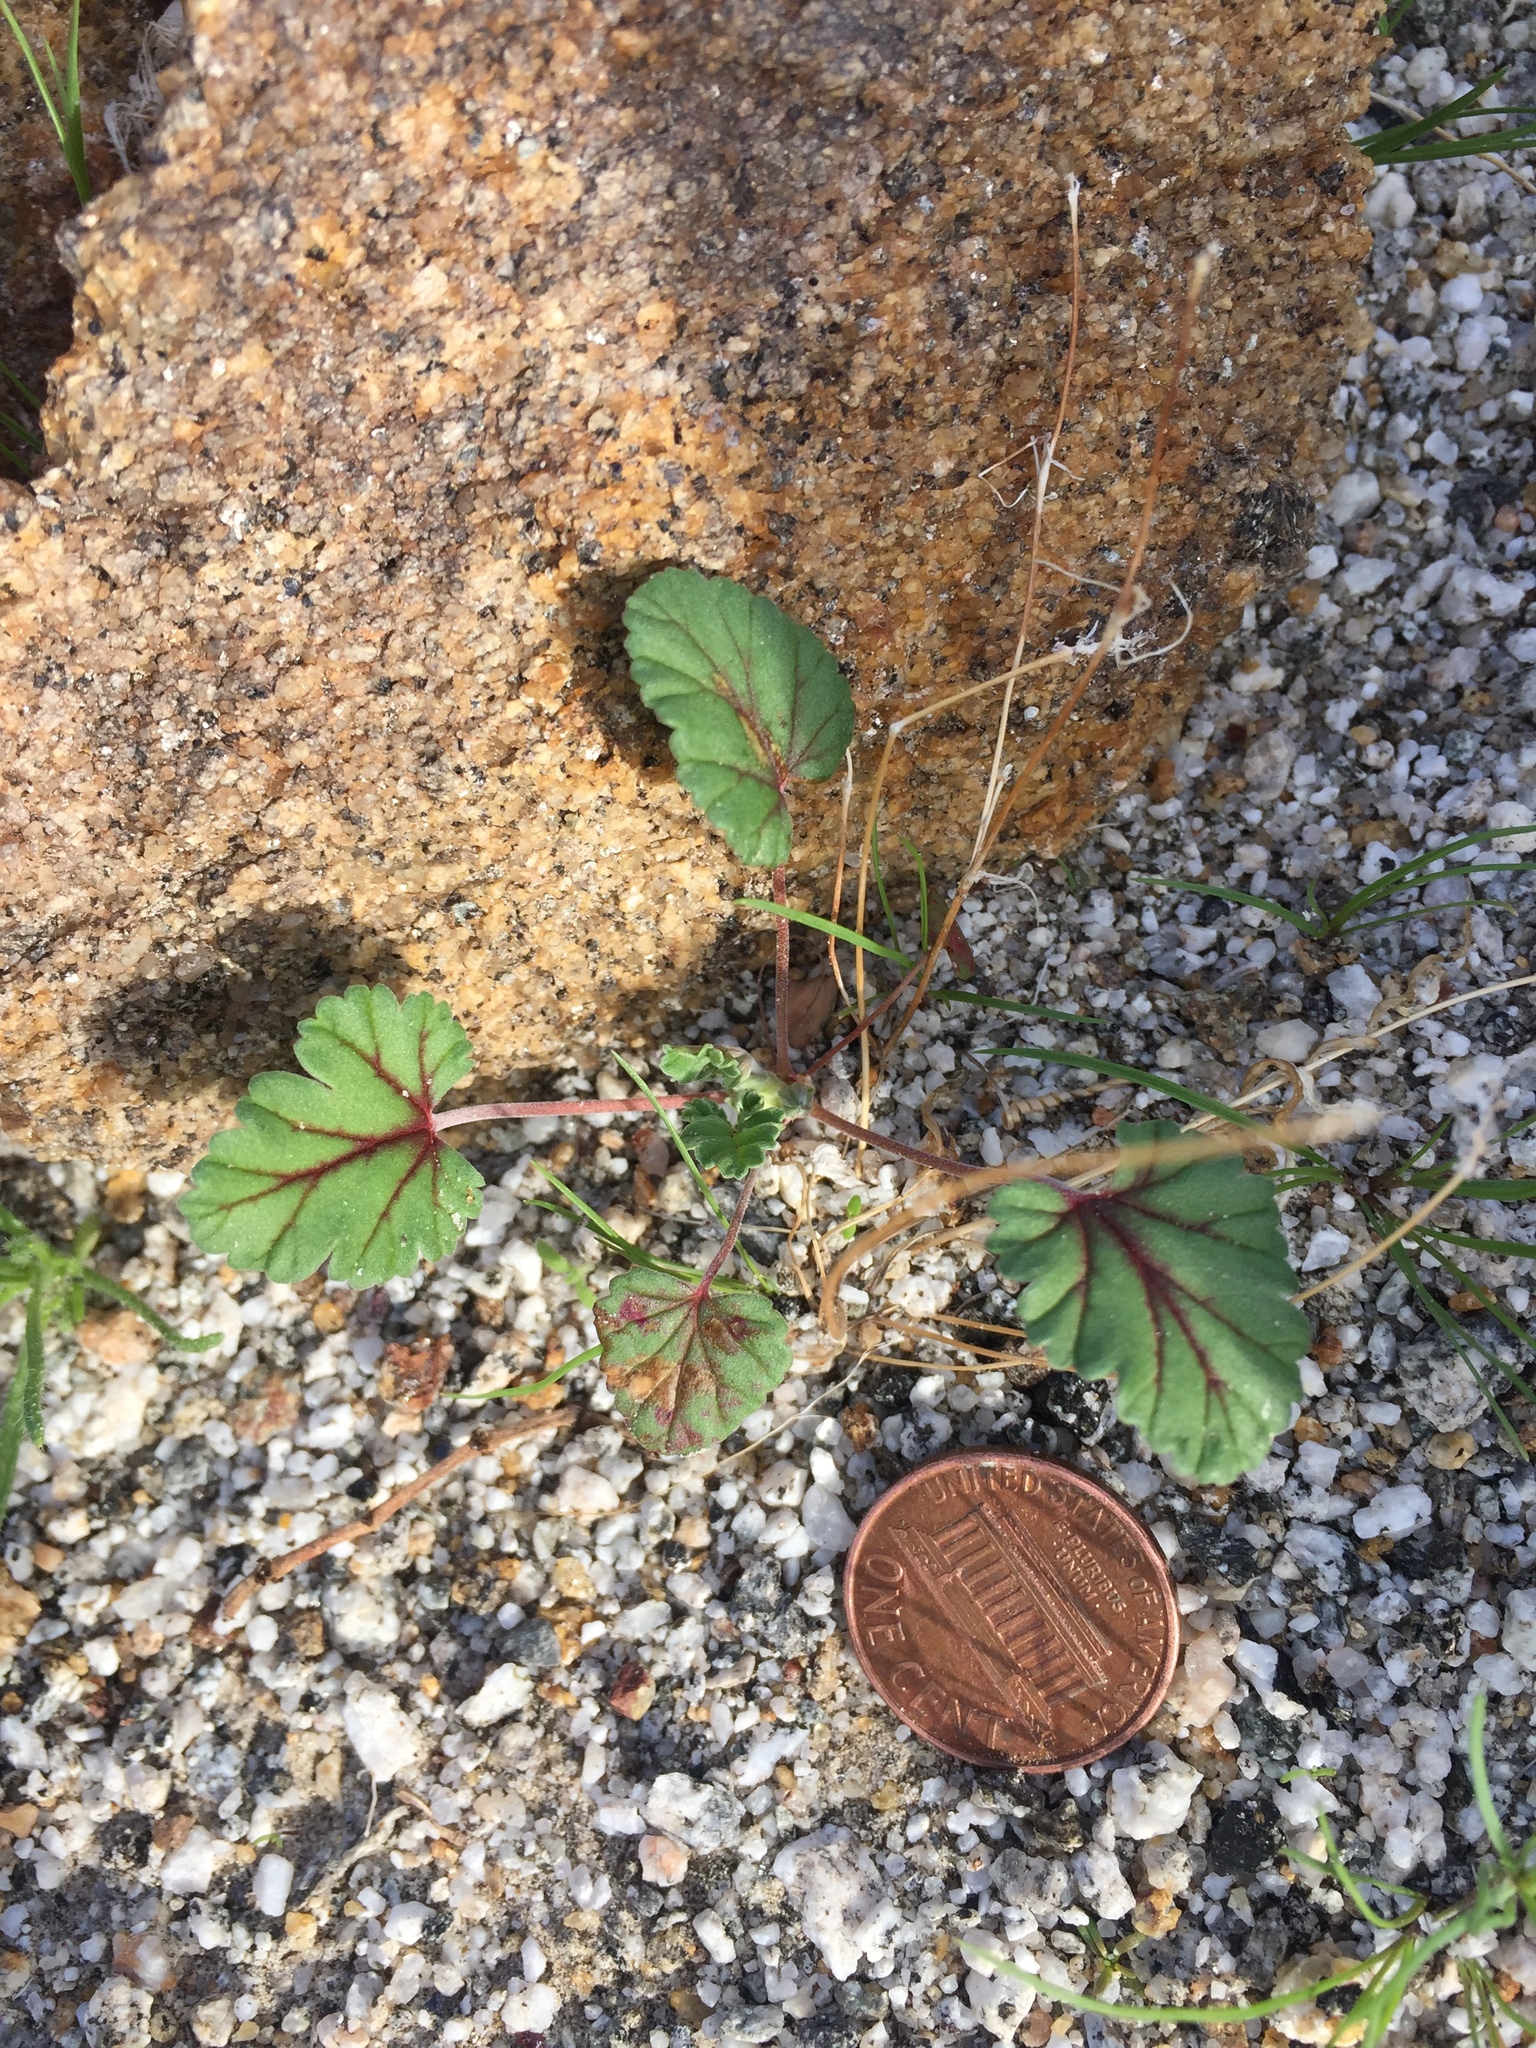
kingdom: Plantae
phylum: Tracheophyta
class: Magnoliopsida
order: Geraniales
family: Geraniaceae
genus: Erodium
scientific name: Erodium texanum
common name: Texas stork's-bill
